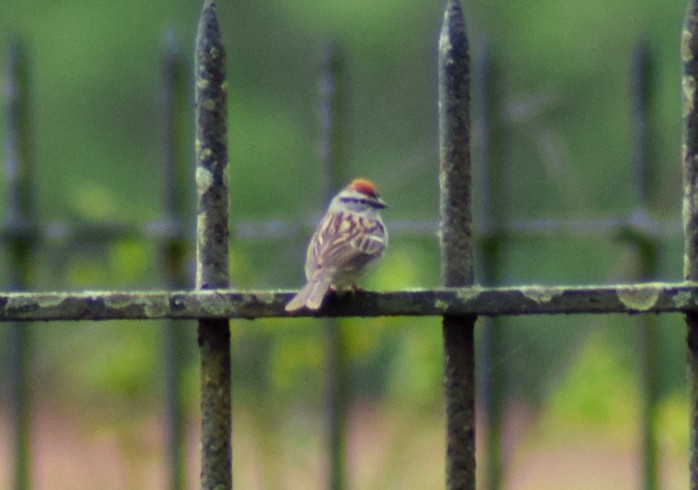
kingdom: Animalia
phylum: Chordata
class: Aves
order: Passeriformes
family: Passerellidae
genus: Spizella
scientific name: Spizella passerina
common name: Chipping sparrow
